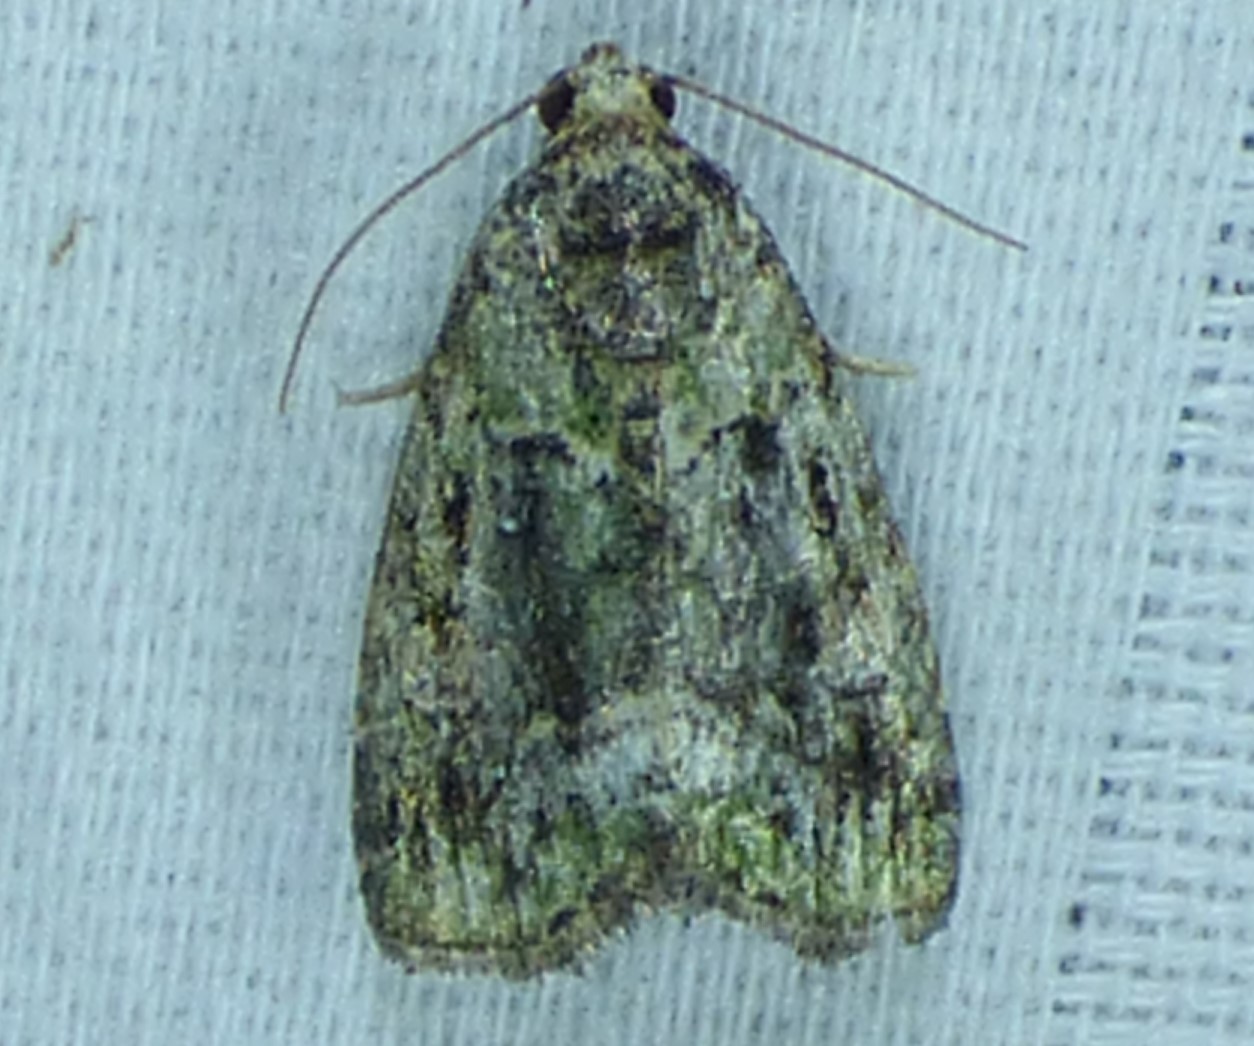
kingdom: Animalia
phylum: Arthropoda
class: Insecta
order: Lepidoptera
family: Noctuidae
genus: Lithacodia
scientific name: Lithacodia musta
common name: Small mossy glyph
